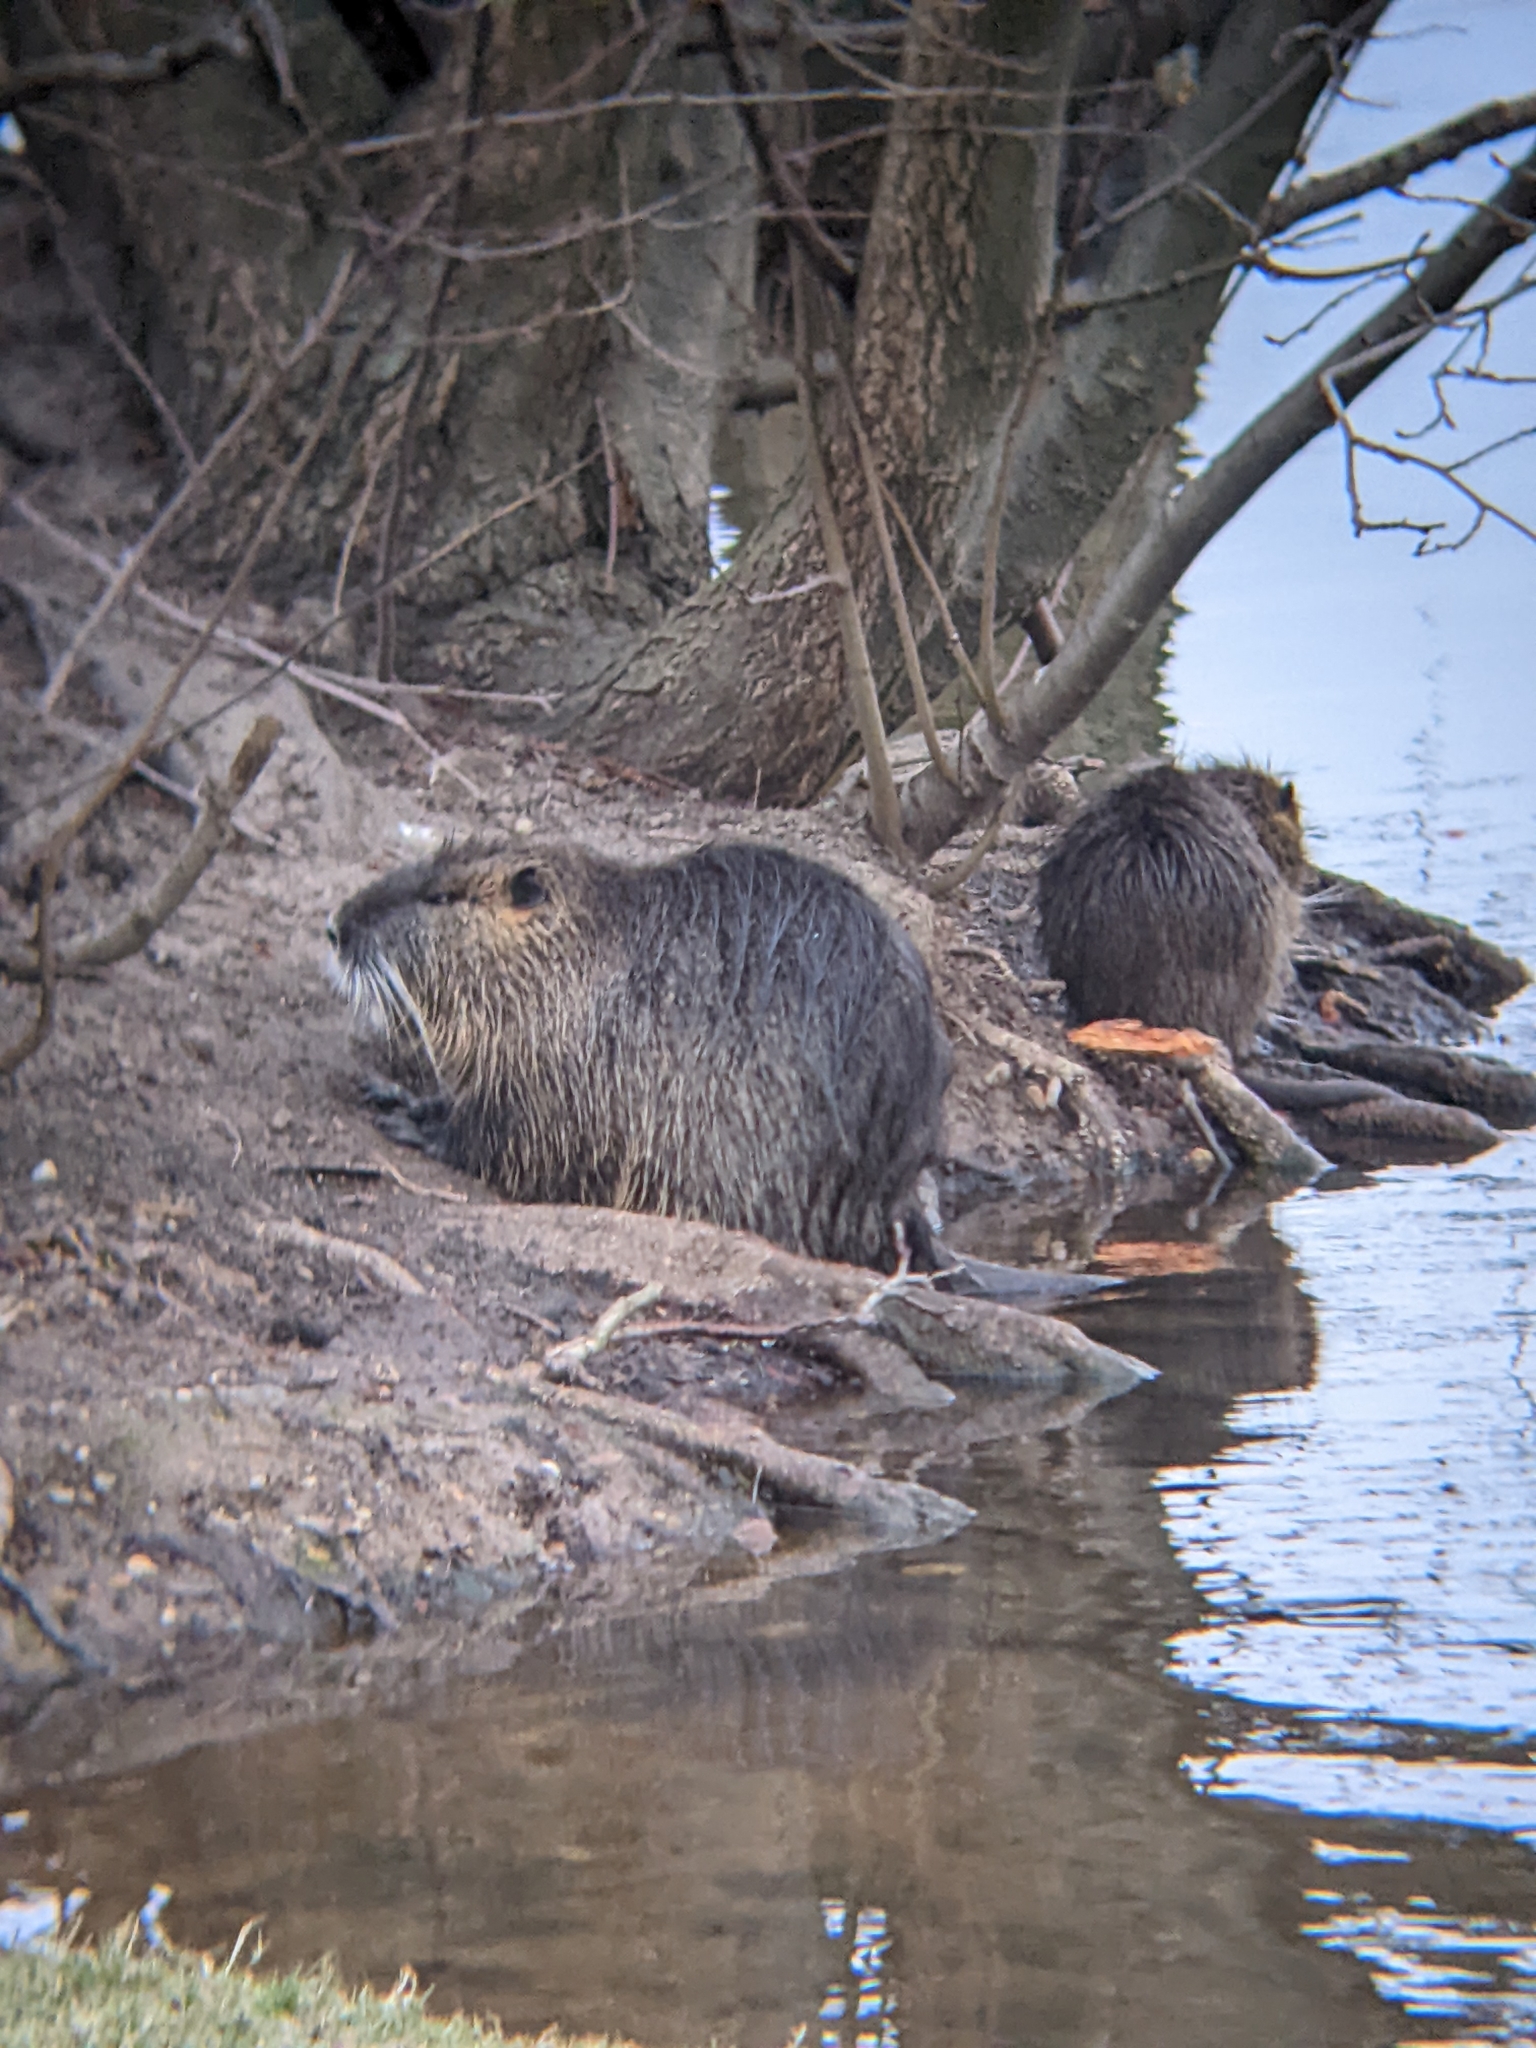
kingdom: Animalia
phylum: Chordata
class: Mammalia
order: Rodentia
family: Myocastoridae
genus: Myocastor
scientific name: Myocastor coypus
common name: Coypu
